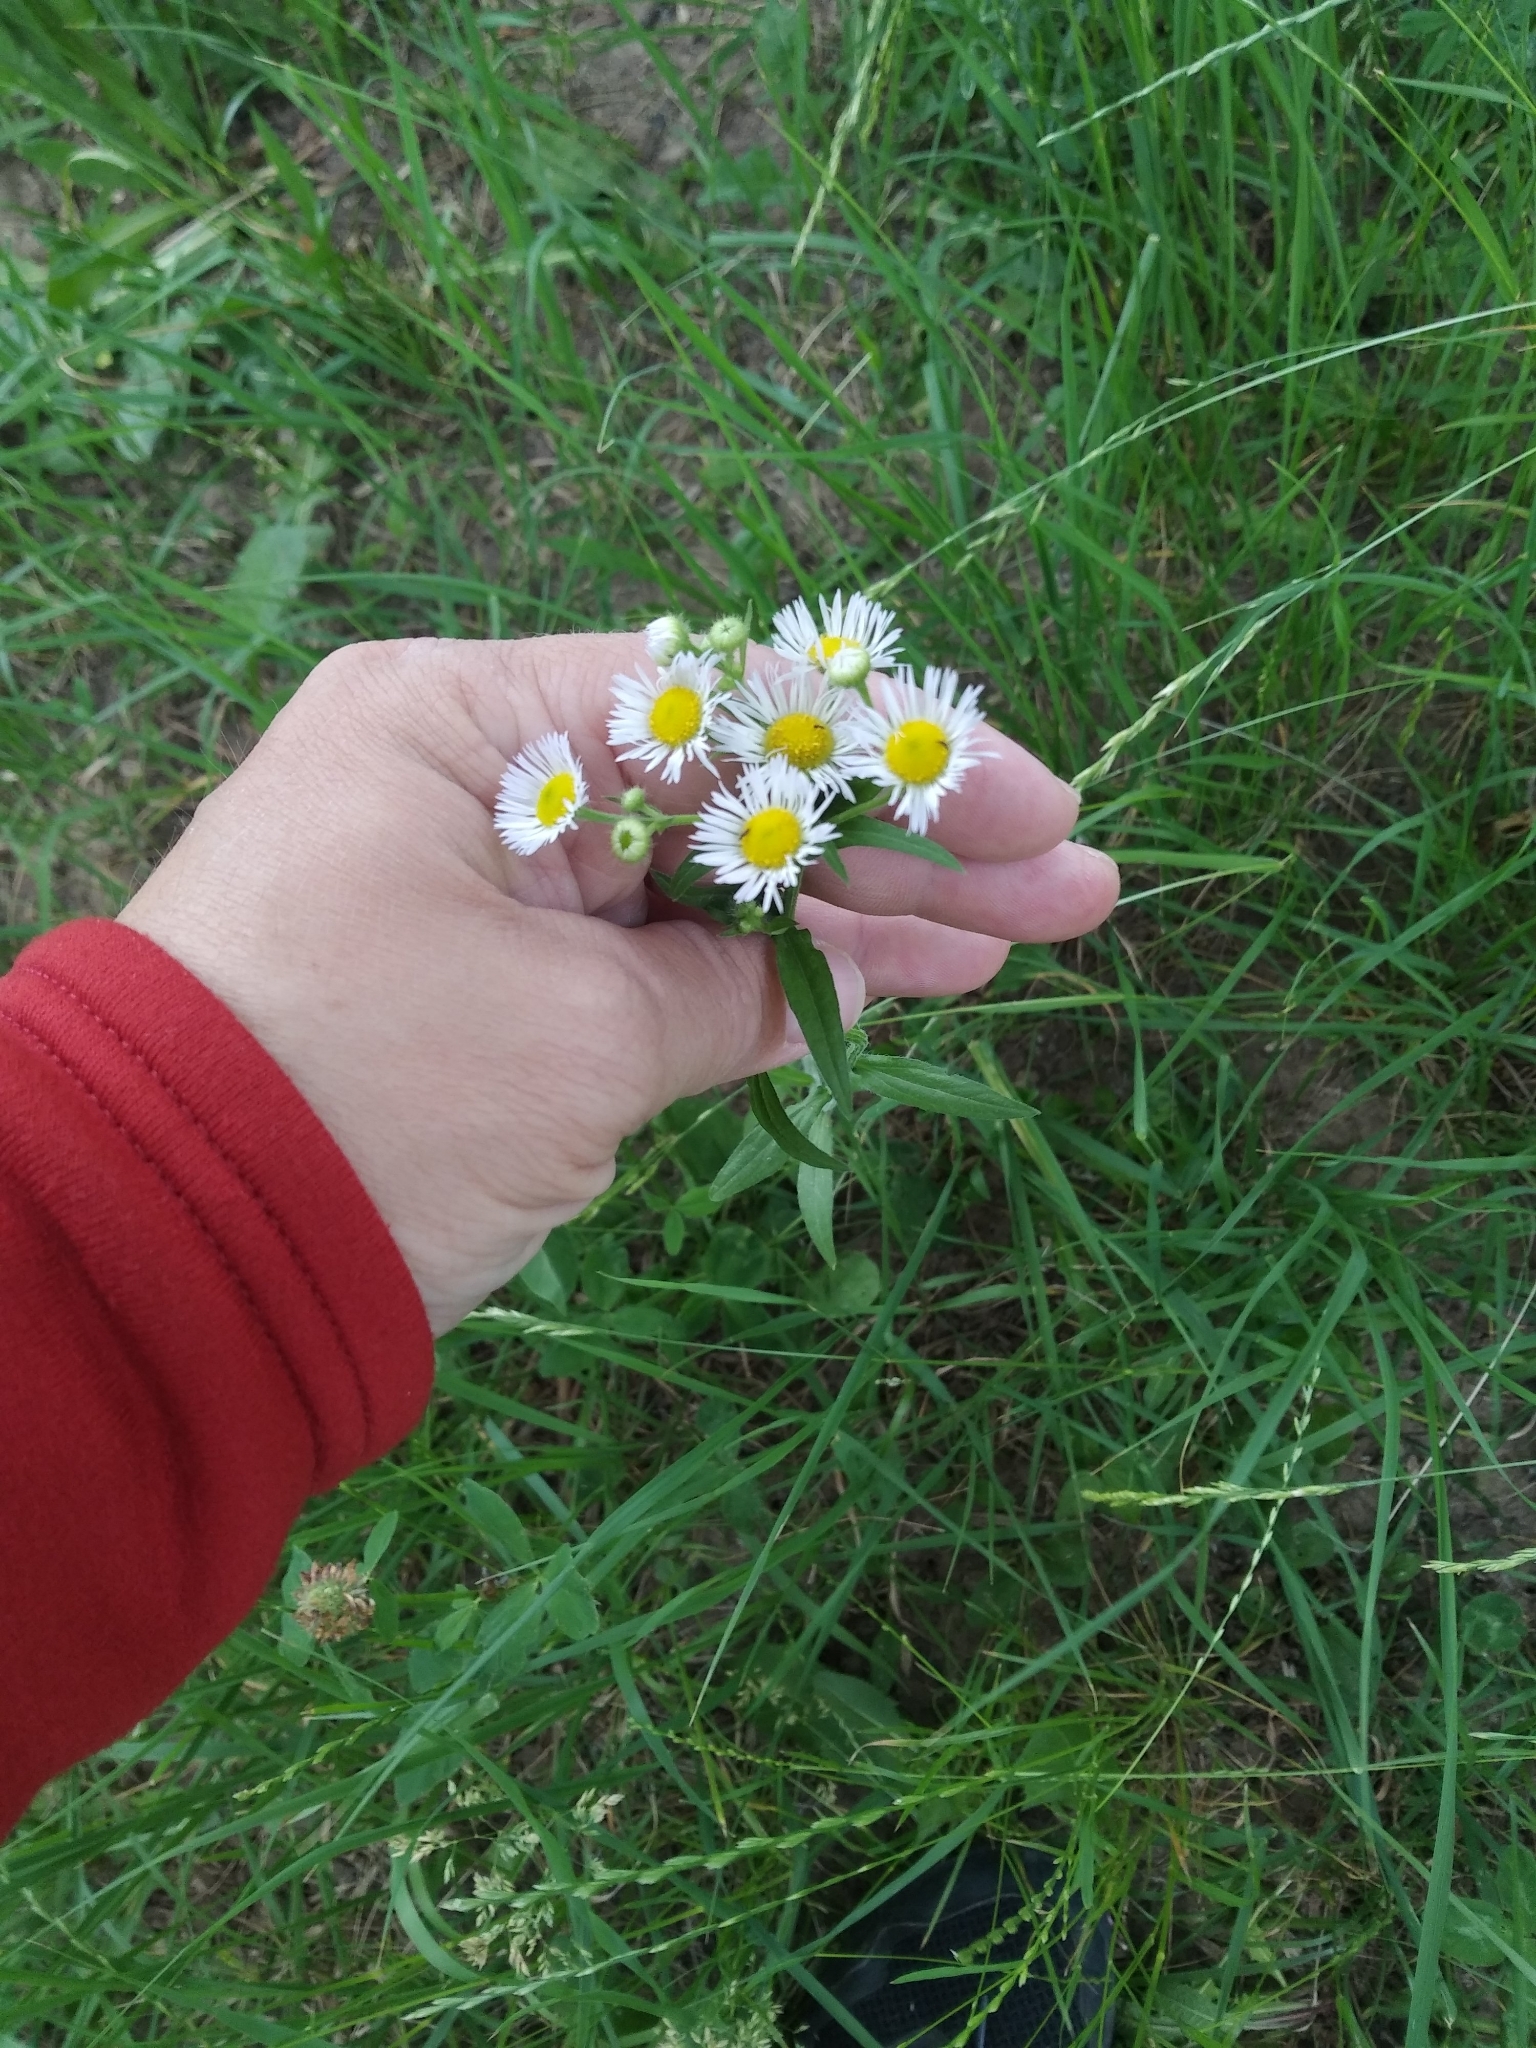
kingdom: Plantae
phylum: Tracheophyta
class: Magnoliopsida
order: Asterales
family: Asteraceae
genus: Erigeron
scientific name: Erigeron annuus
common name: Tall fleabane
